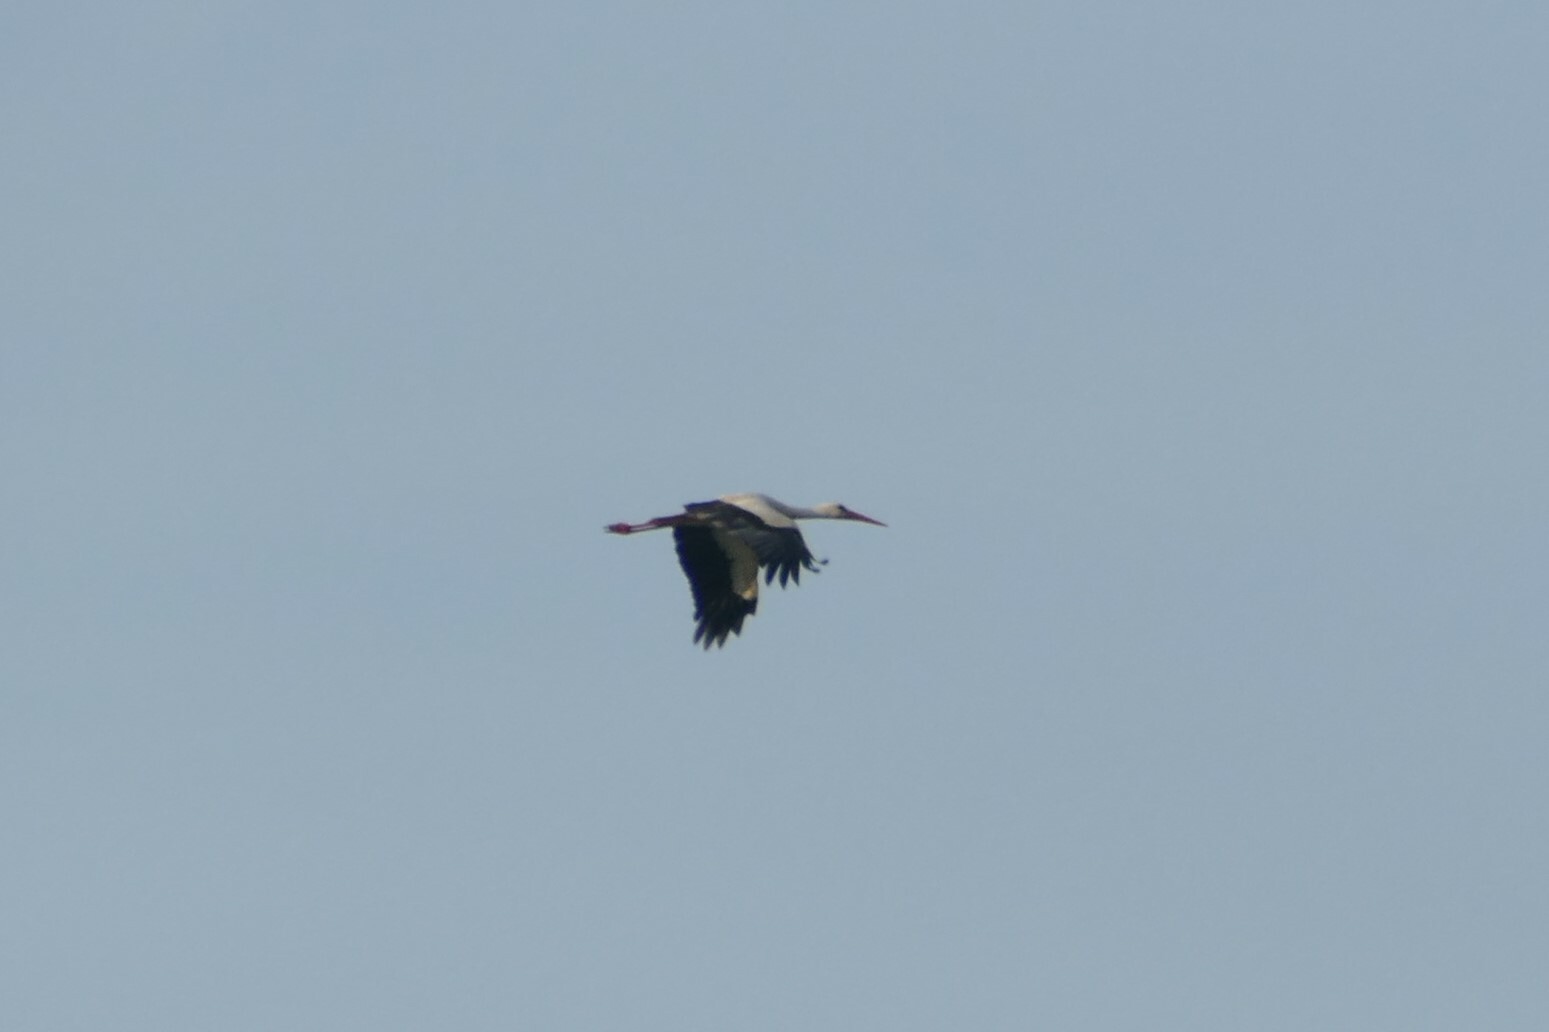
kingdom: Animalia
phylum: Chordata
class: Aves
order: Ciconiiformes
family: Ciconiidae
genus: Ciconia
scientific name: Ciconia ciconia
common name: White stork
